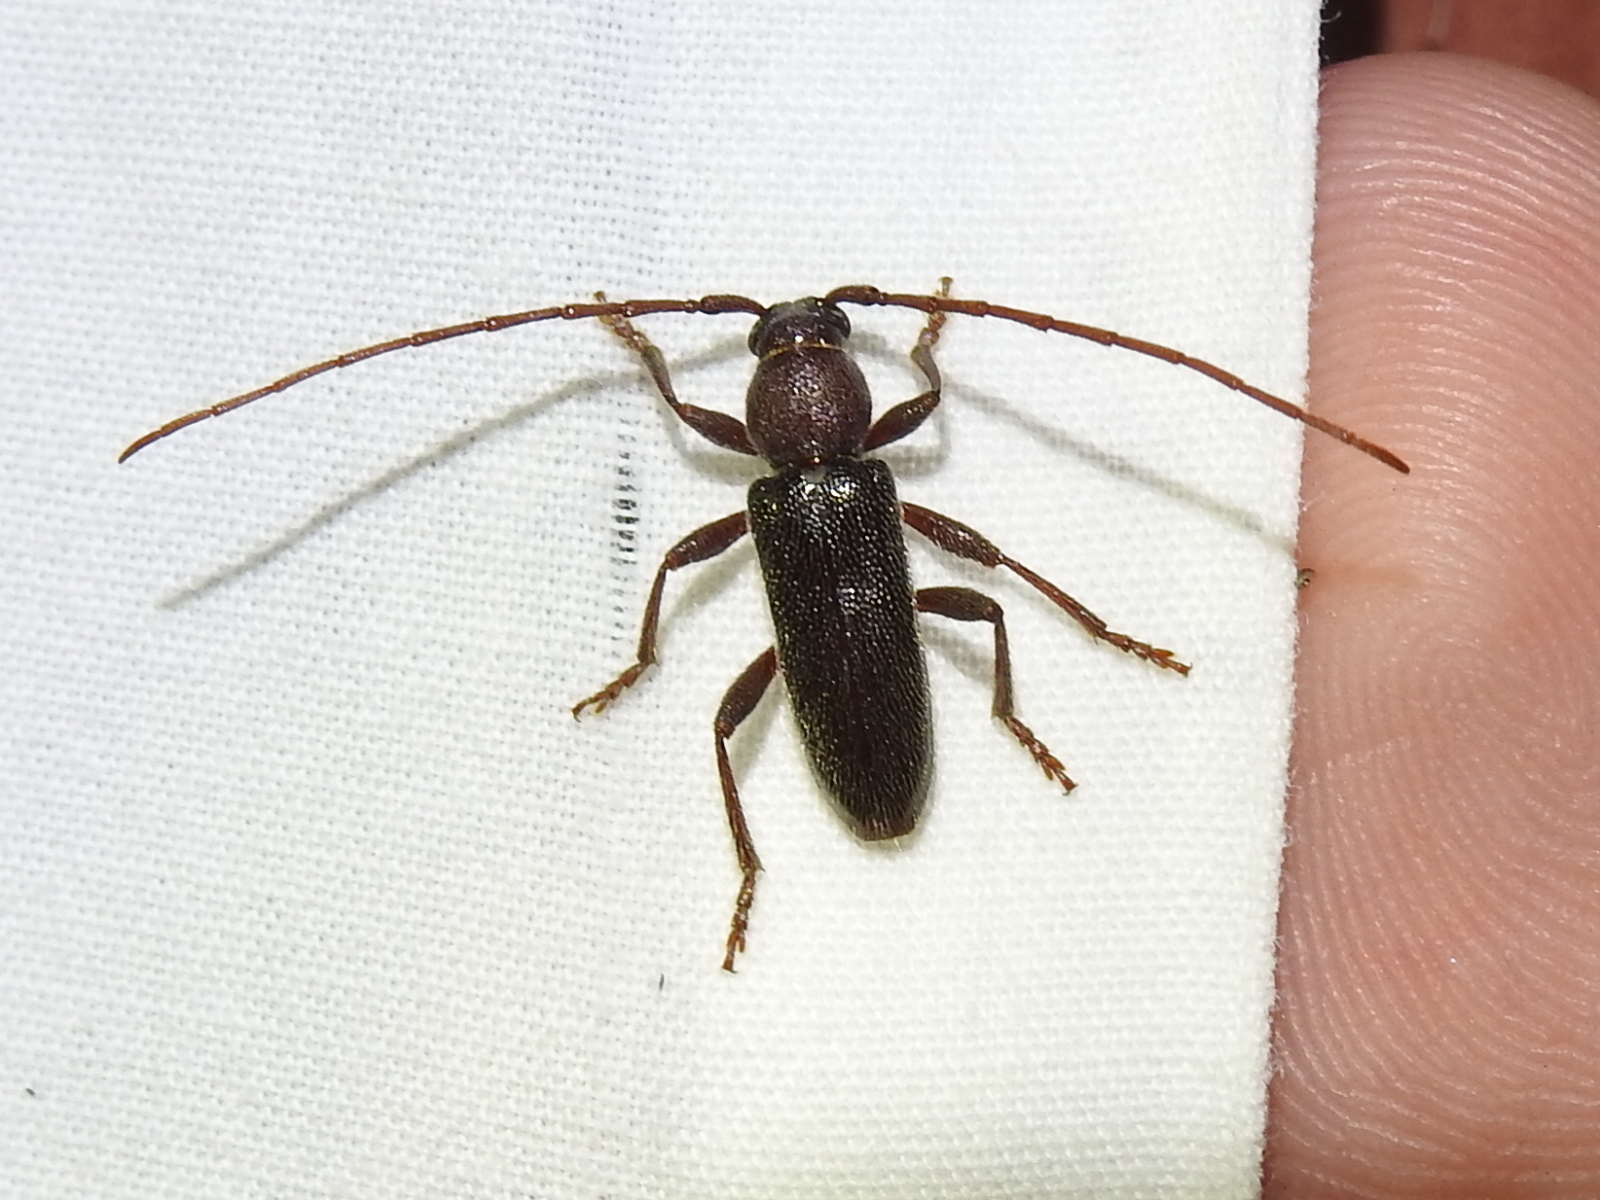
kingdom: Animalia
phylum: Arthropoda
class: Insecta
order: Coleoptera
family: Cerambycidae
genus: Anelaphus
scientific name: Anelaphus moestus
